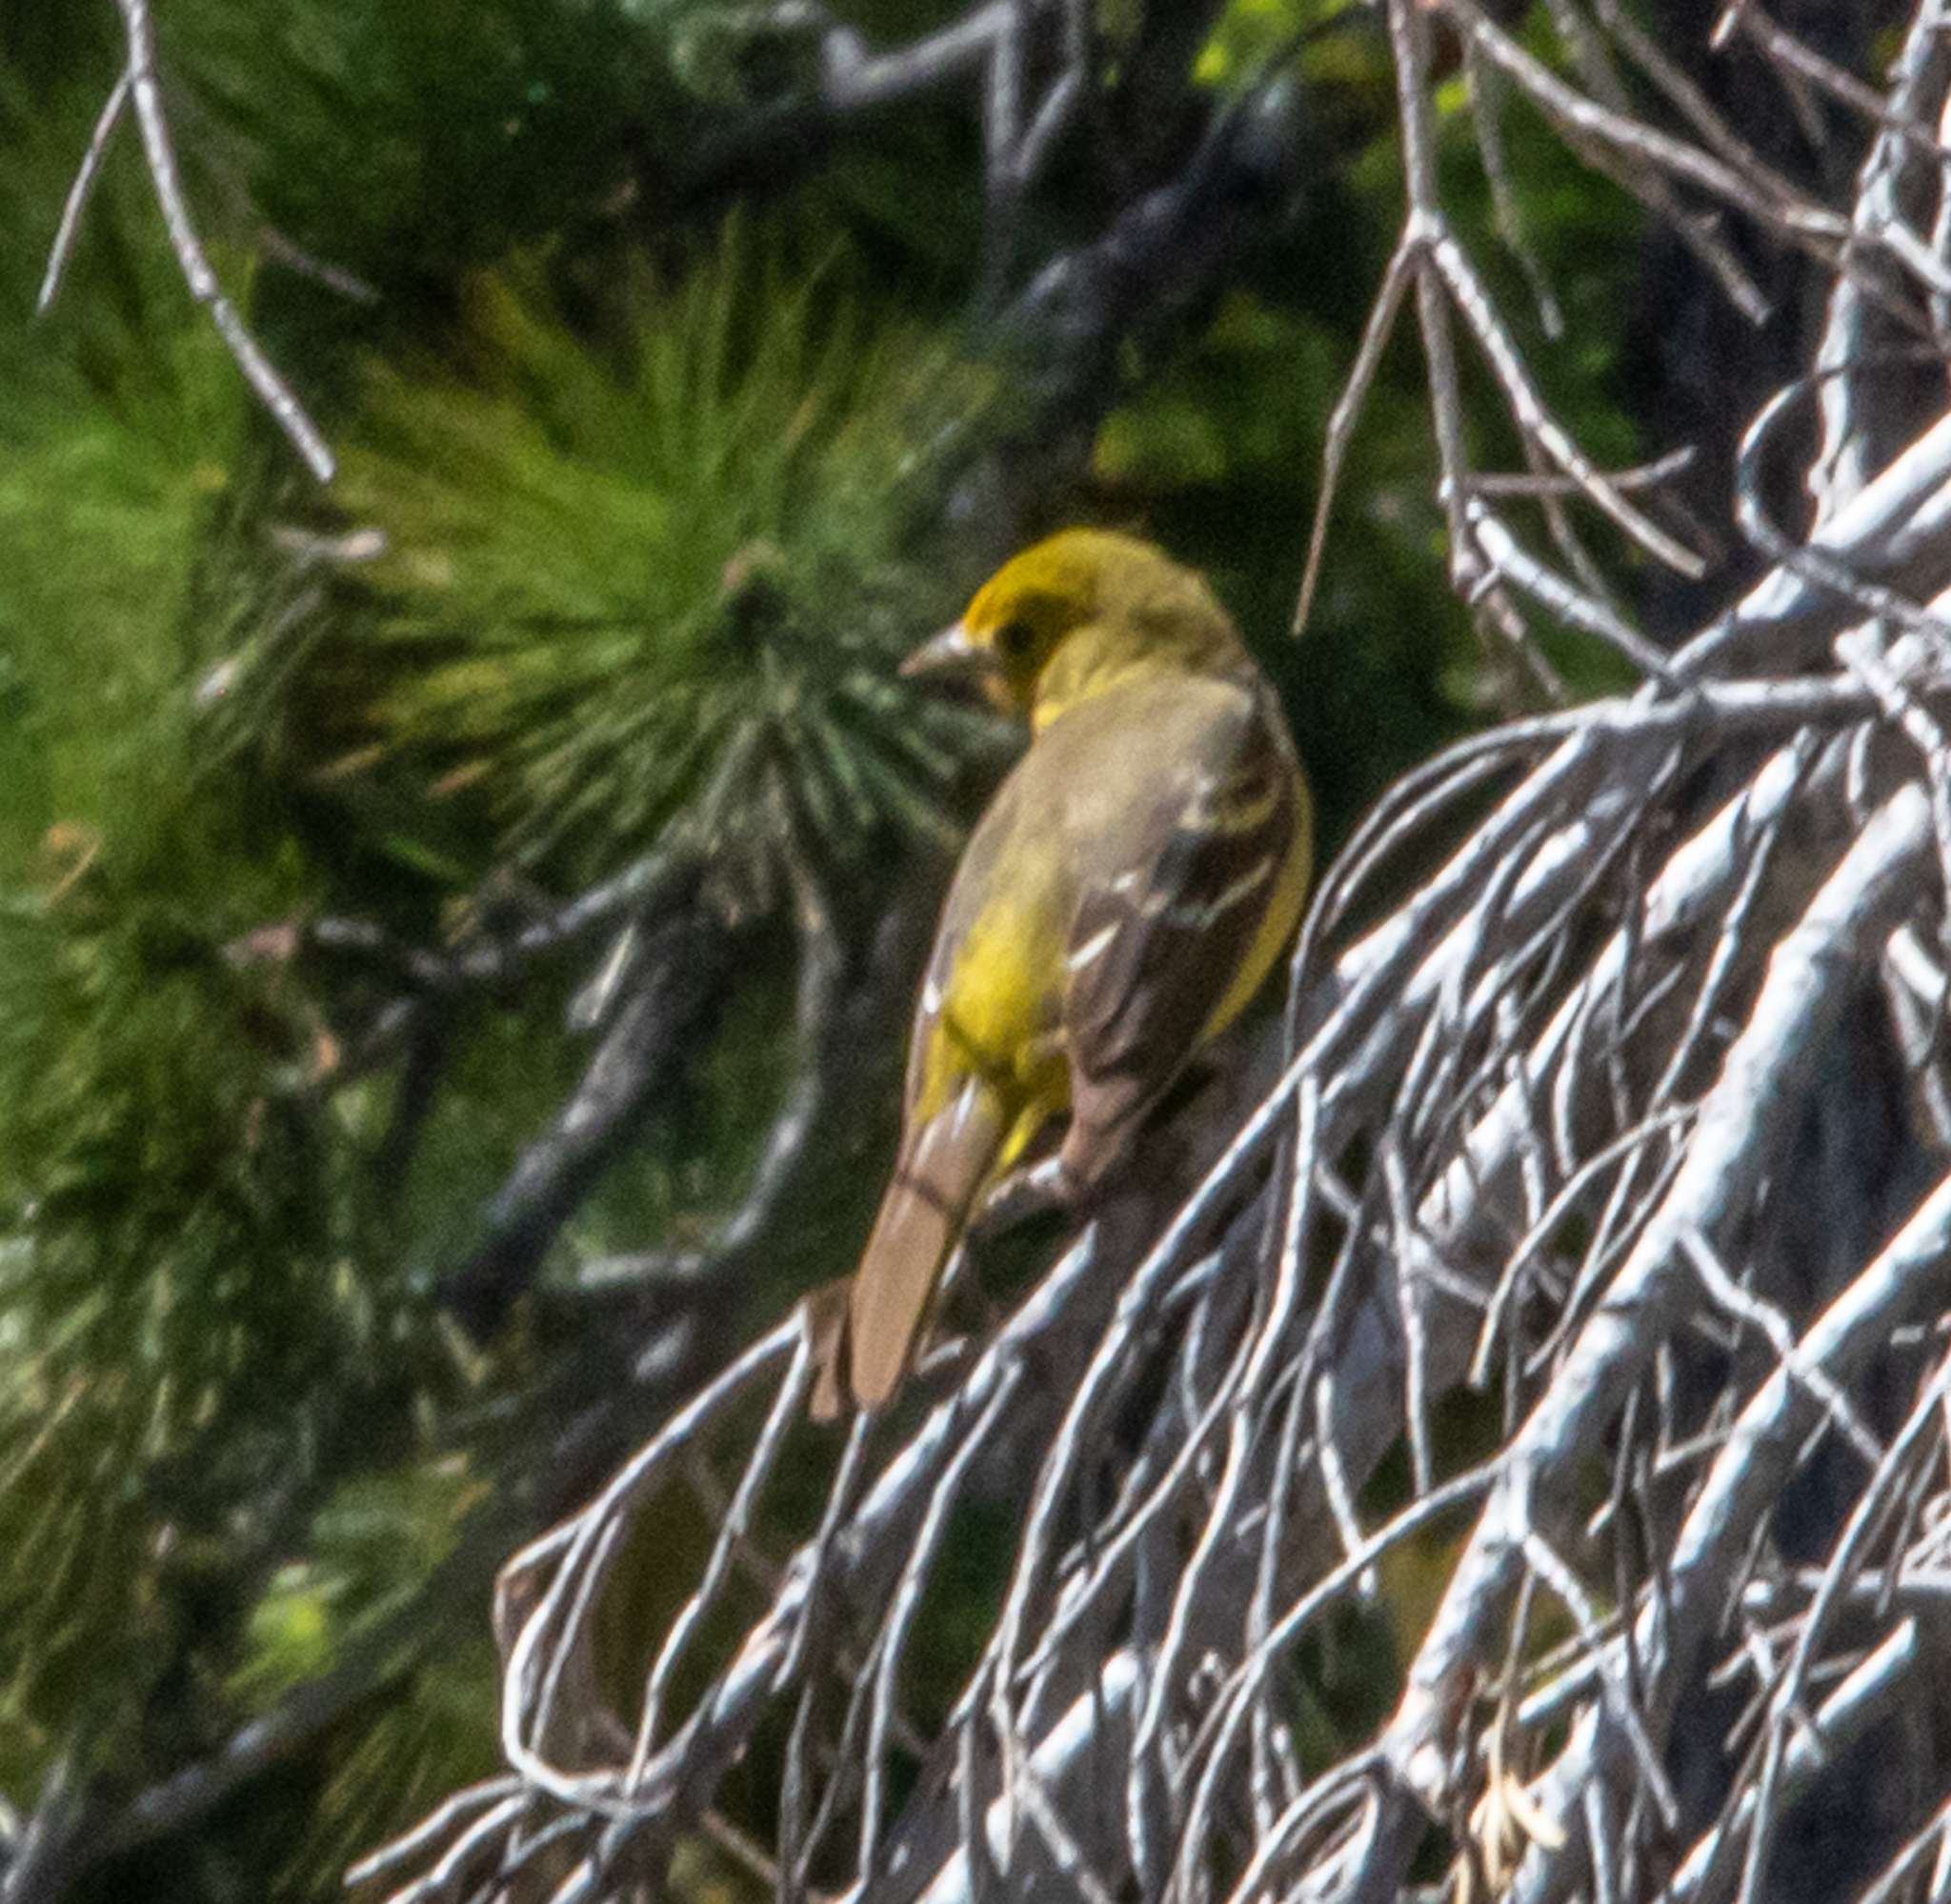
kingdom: Animalia
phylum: Chordata
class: Aves
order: Passeriformes
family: Cardinalidae
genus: Piranga
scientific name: Piranga ludoviciana
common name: Western tanager
